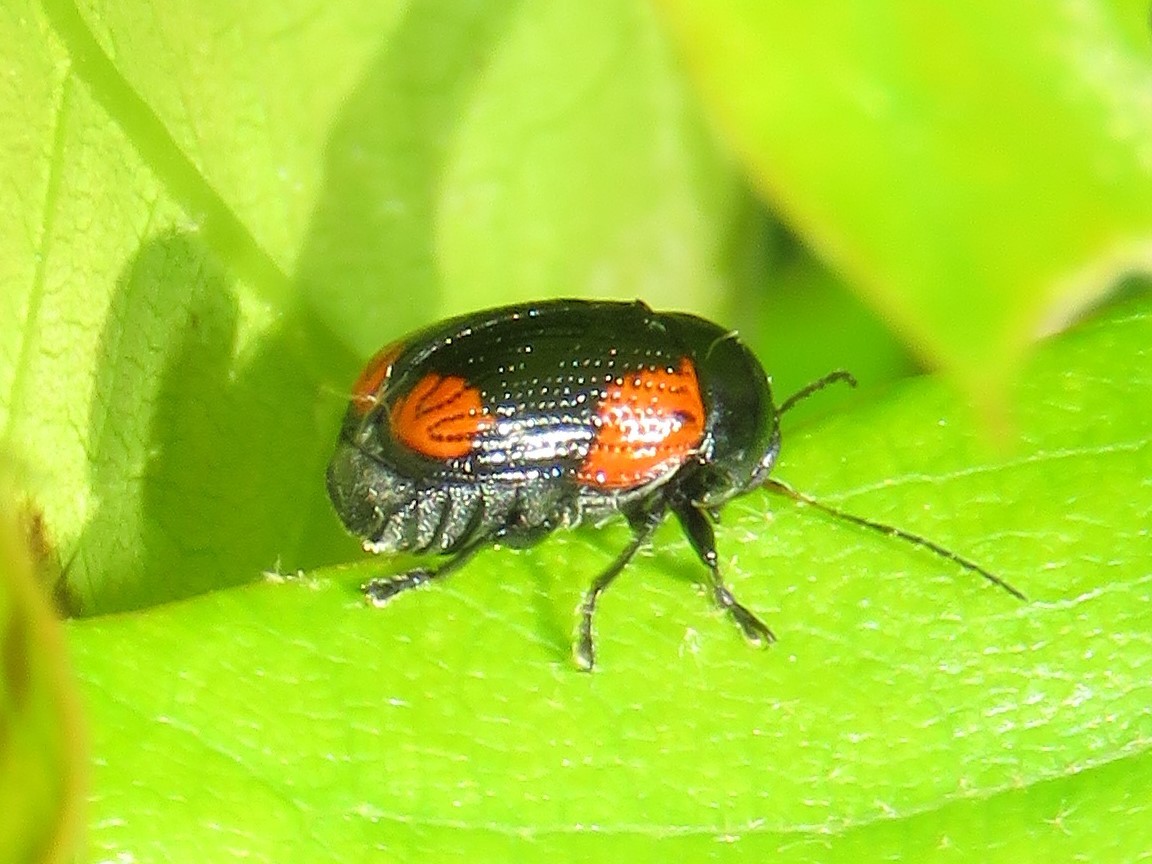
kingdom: Animalia
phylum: Arthropoda
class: Insecta
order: Coleoptera
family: Chrysomelidae
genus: Cryptocephalus
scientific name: Cryptocephalus notatus
